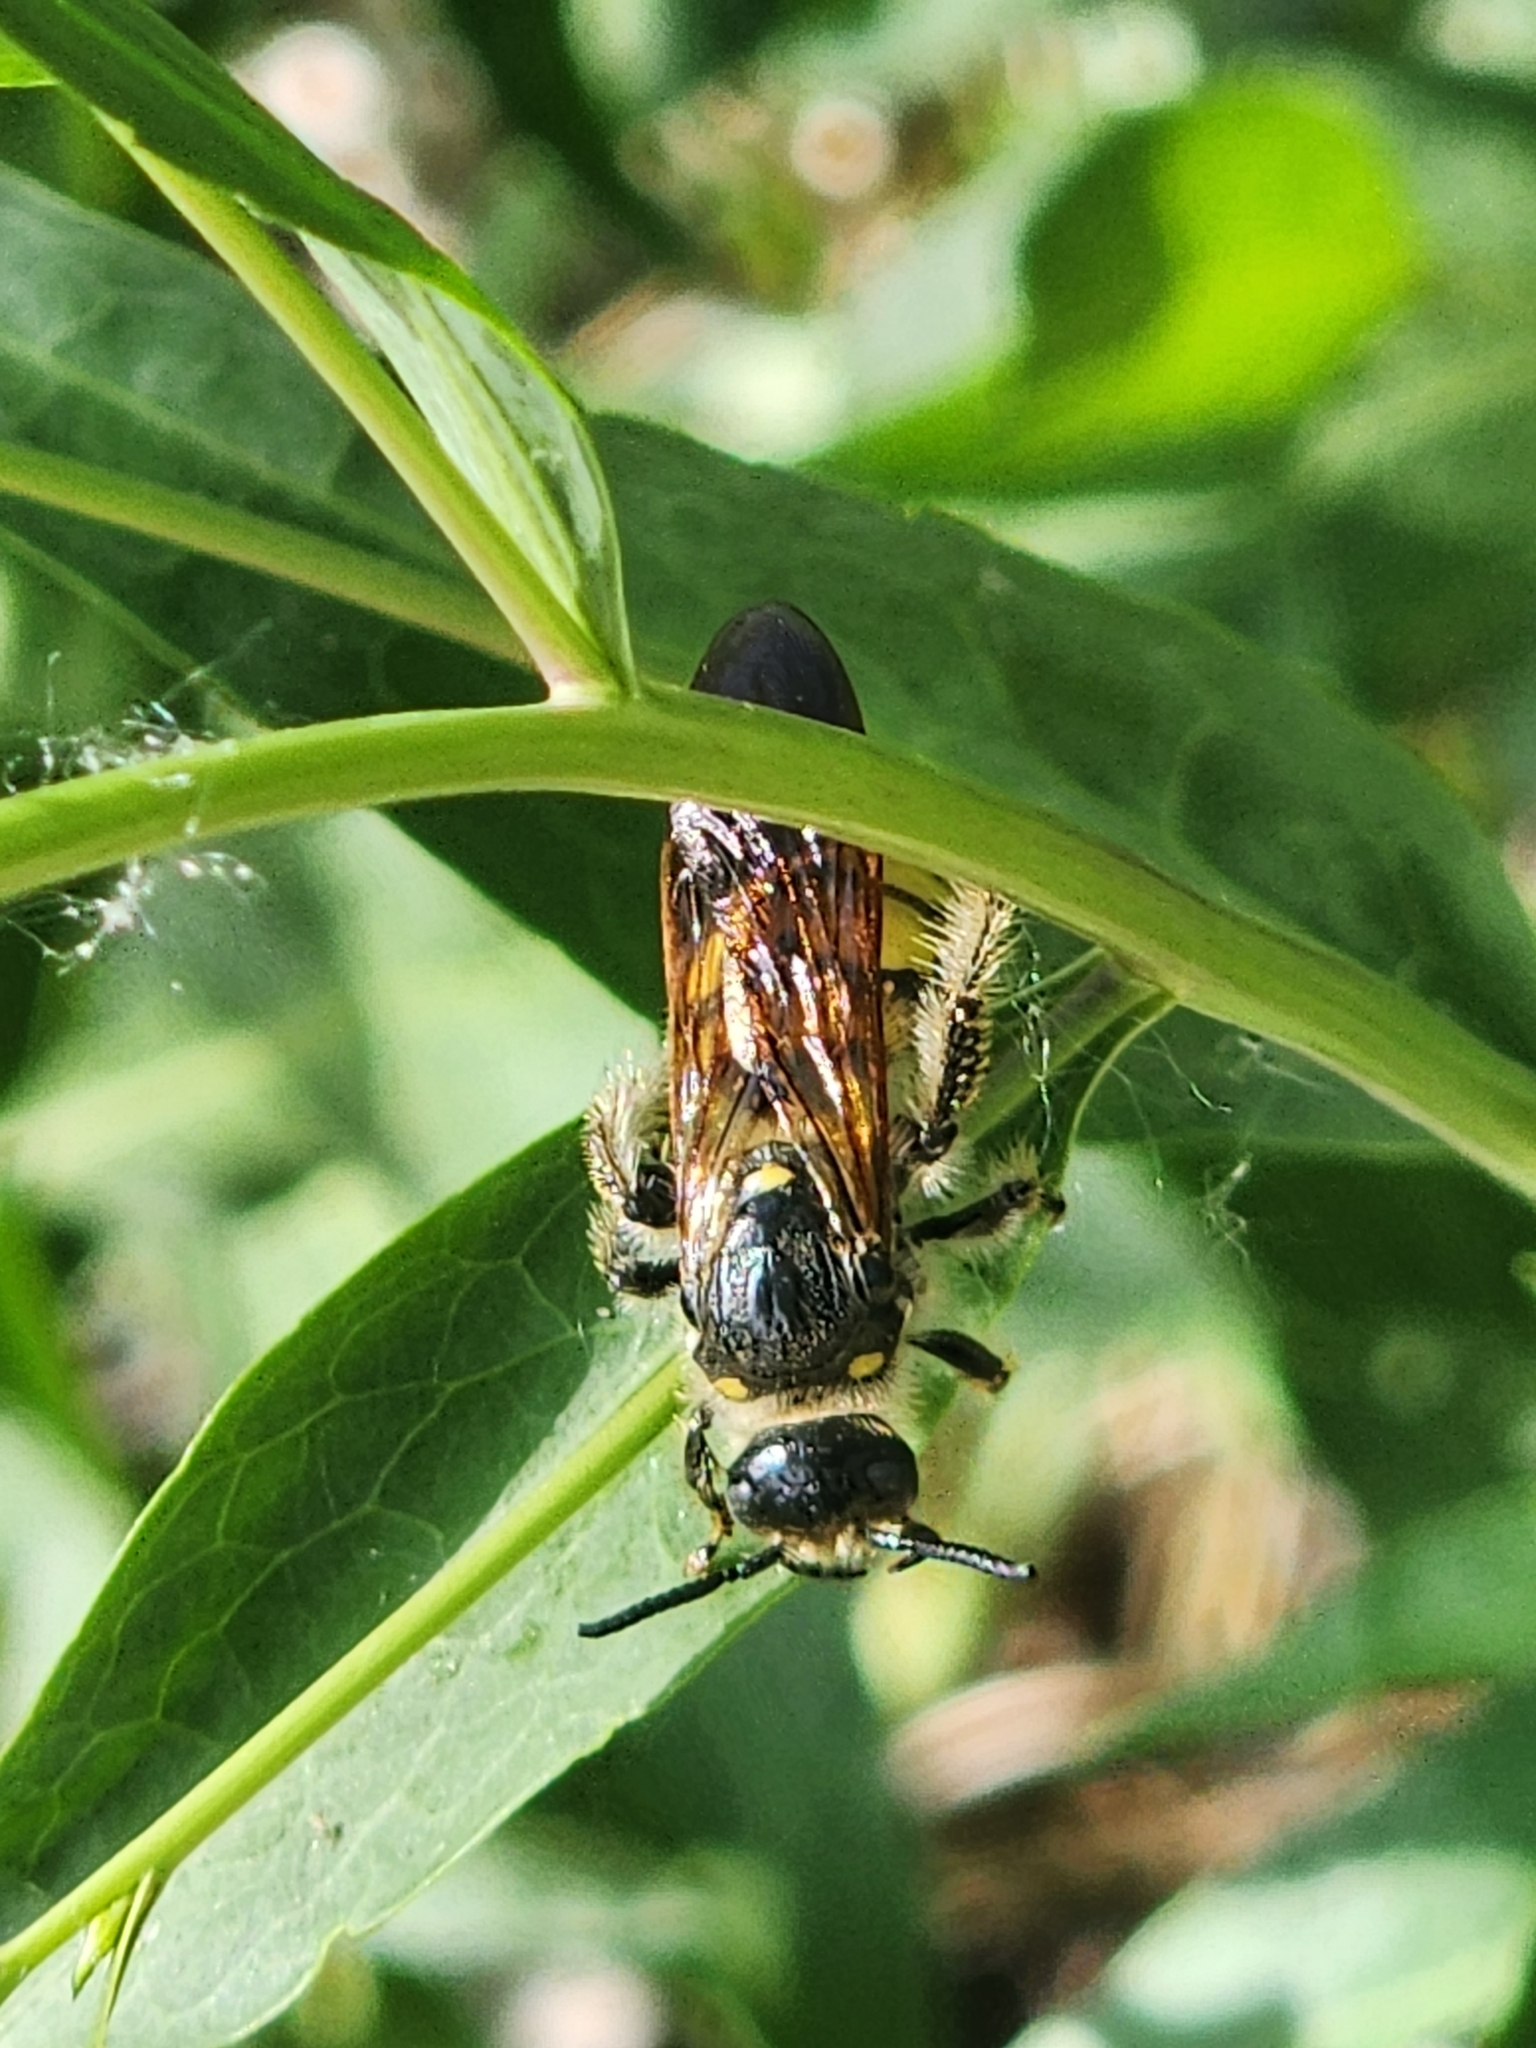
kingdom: Animalia
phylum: Arthropoda
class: Insecta
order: Hymenoptera
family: Scoliidae
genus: Dielis
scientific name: Dielis
